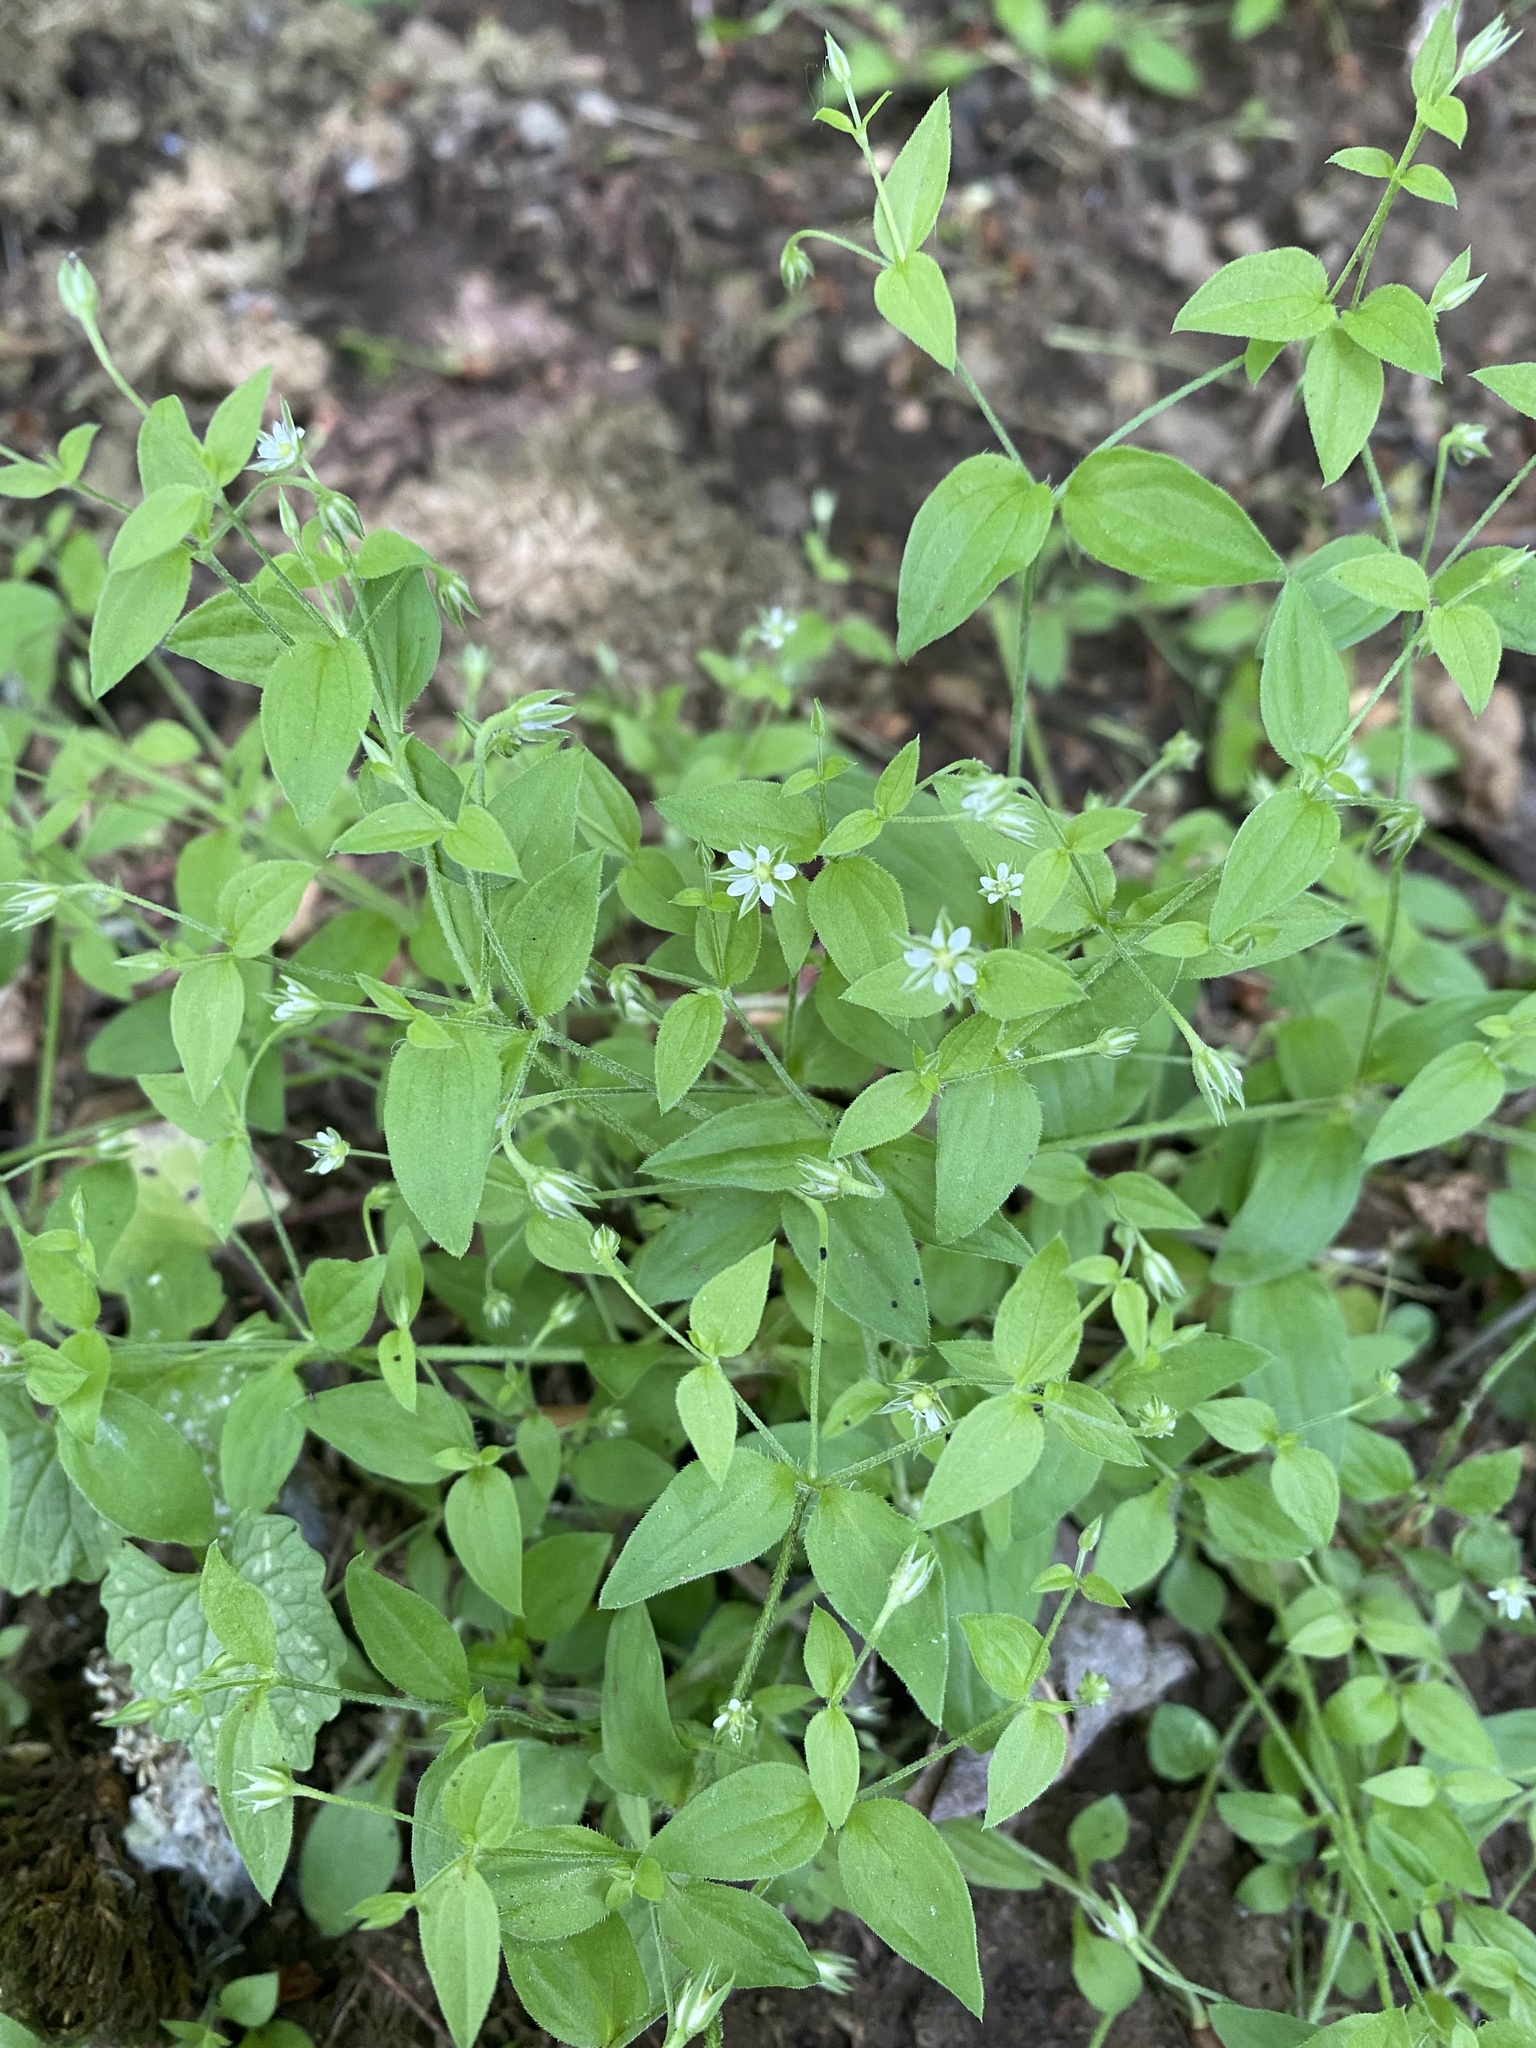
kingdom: Plantae
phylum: Tracheophyta
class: Magnoliopsida
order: Caryophyllales
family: Caryophyllaceae
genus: Moehringia
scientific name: Moehringia trinervia
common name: Three-nerved sandwort
